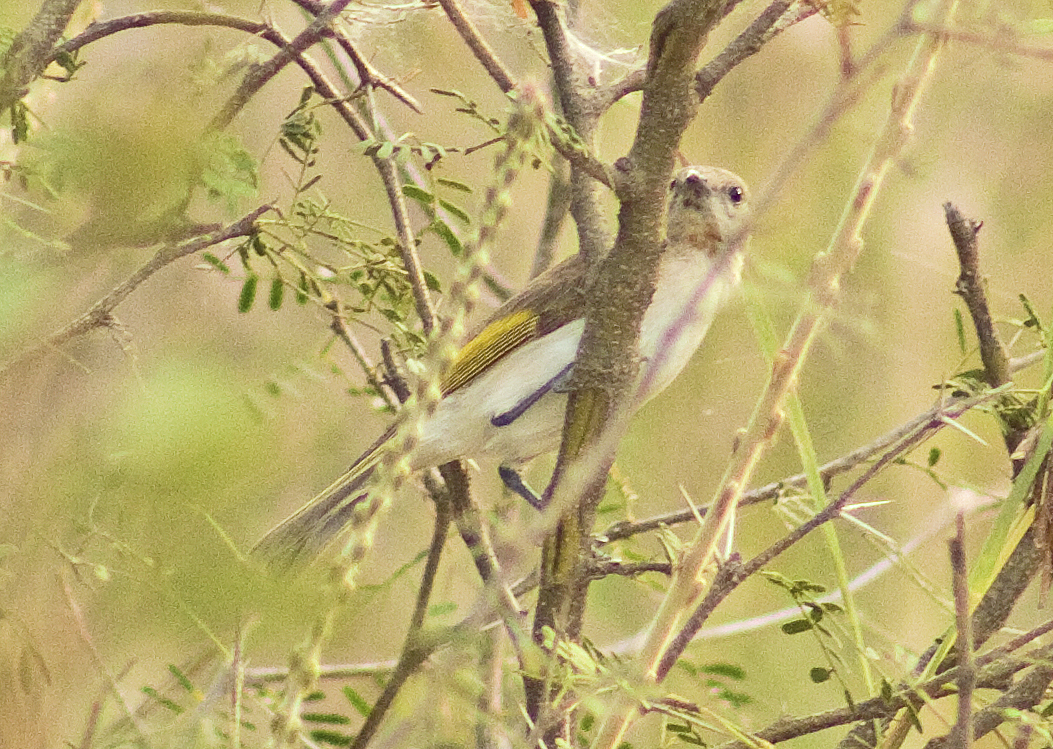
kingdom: Animalia
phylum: Chordata
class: Aves
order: Passeriformes
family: Meliphagidae
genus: Conopophila
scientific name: Conopophila rufogularis
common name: Rufous-throated honeyeater
